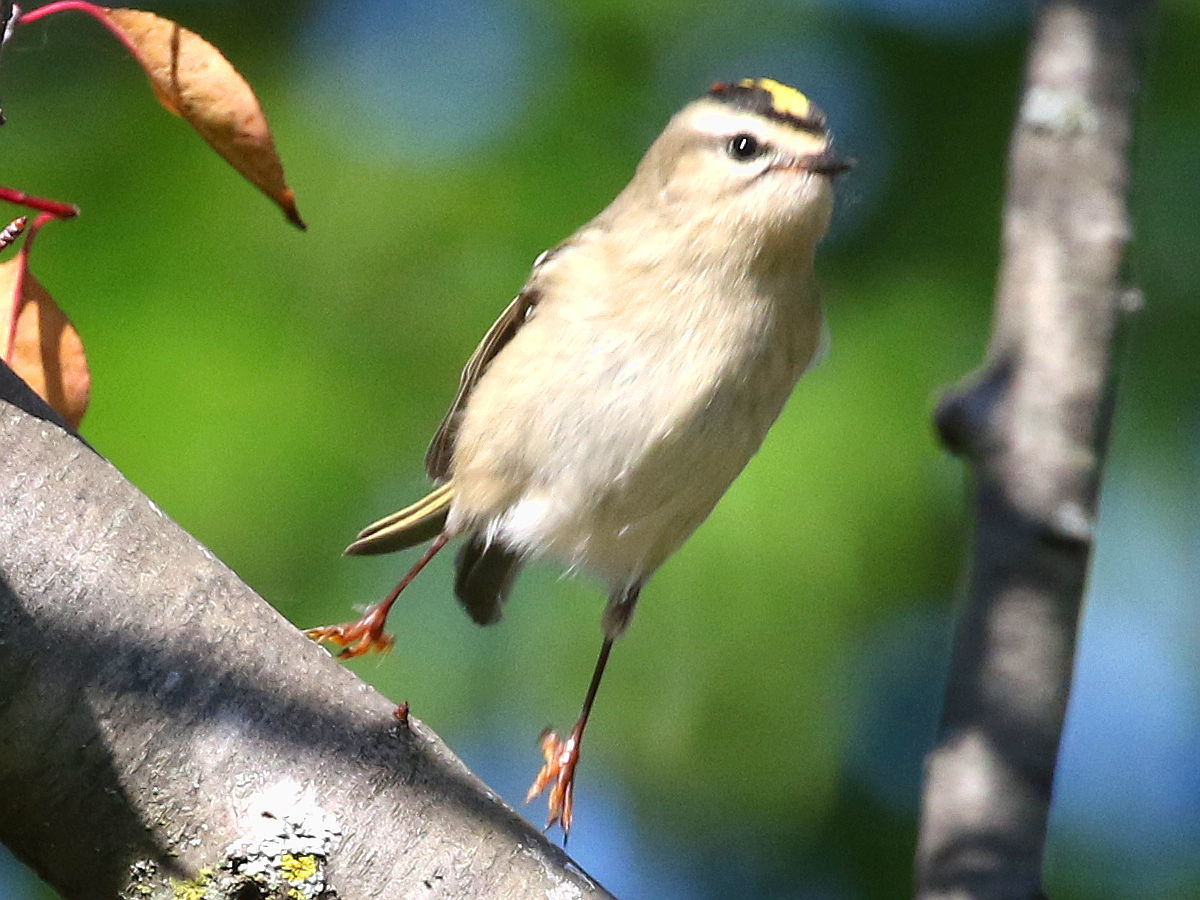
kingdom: Animalia
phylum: Chordata
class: Aves
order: Passeriformes
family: Regulidae
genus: Regulus
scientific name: Regulus satrapa
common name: Golden-crowned kinglet
